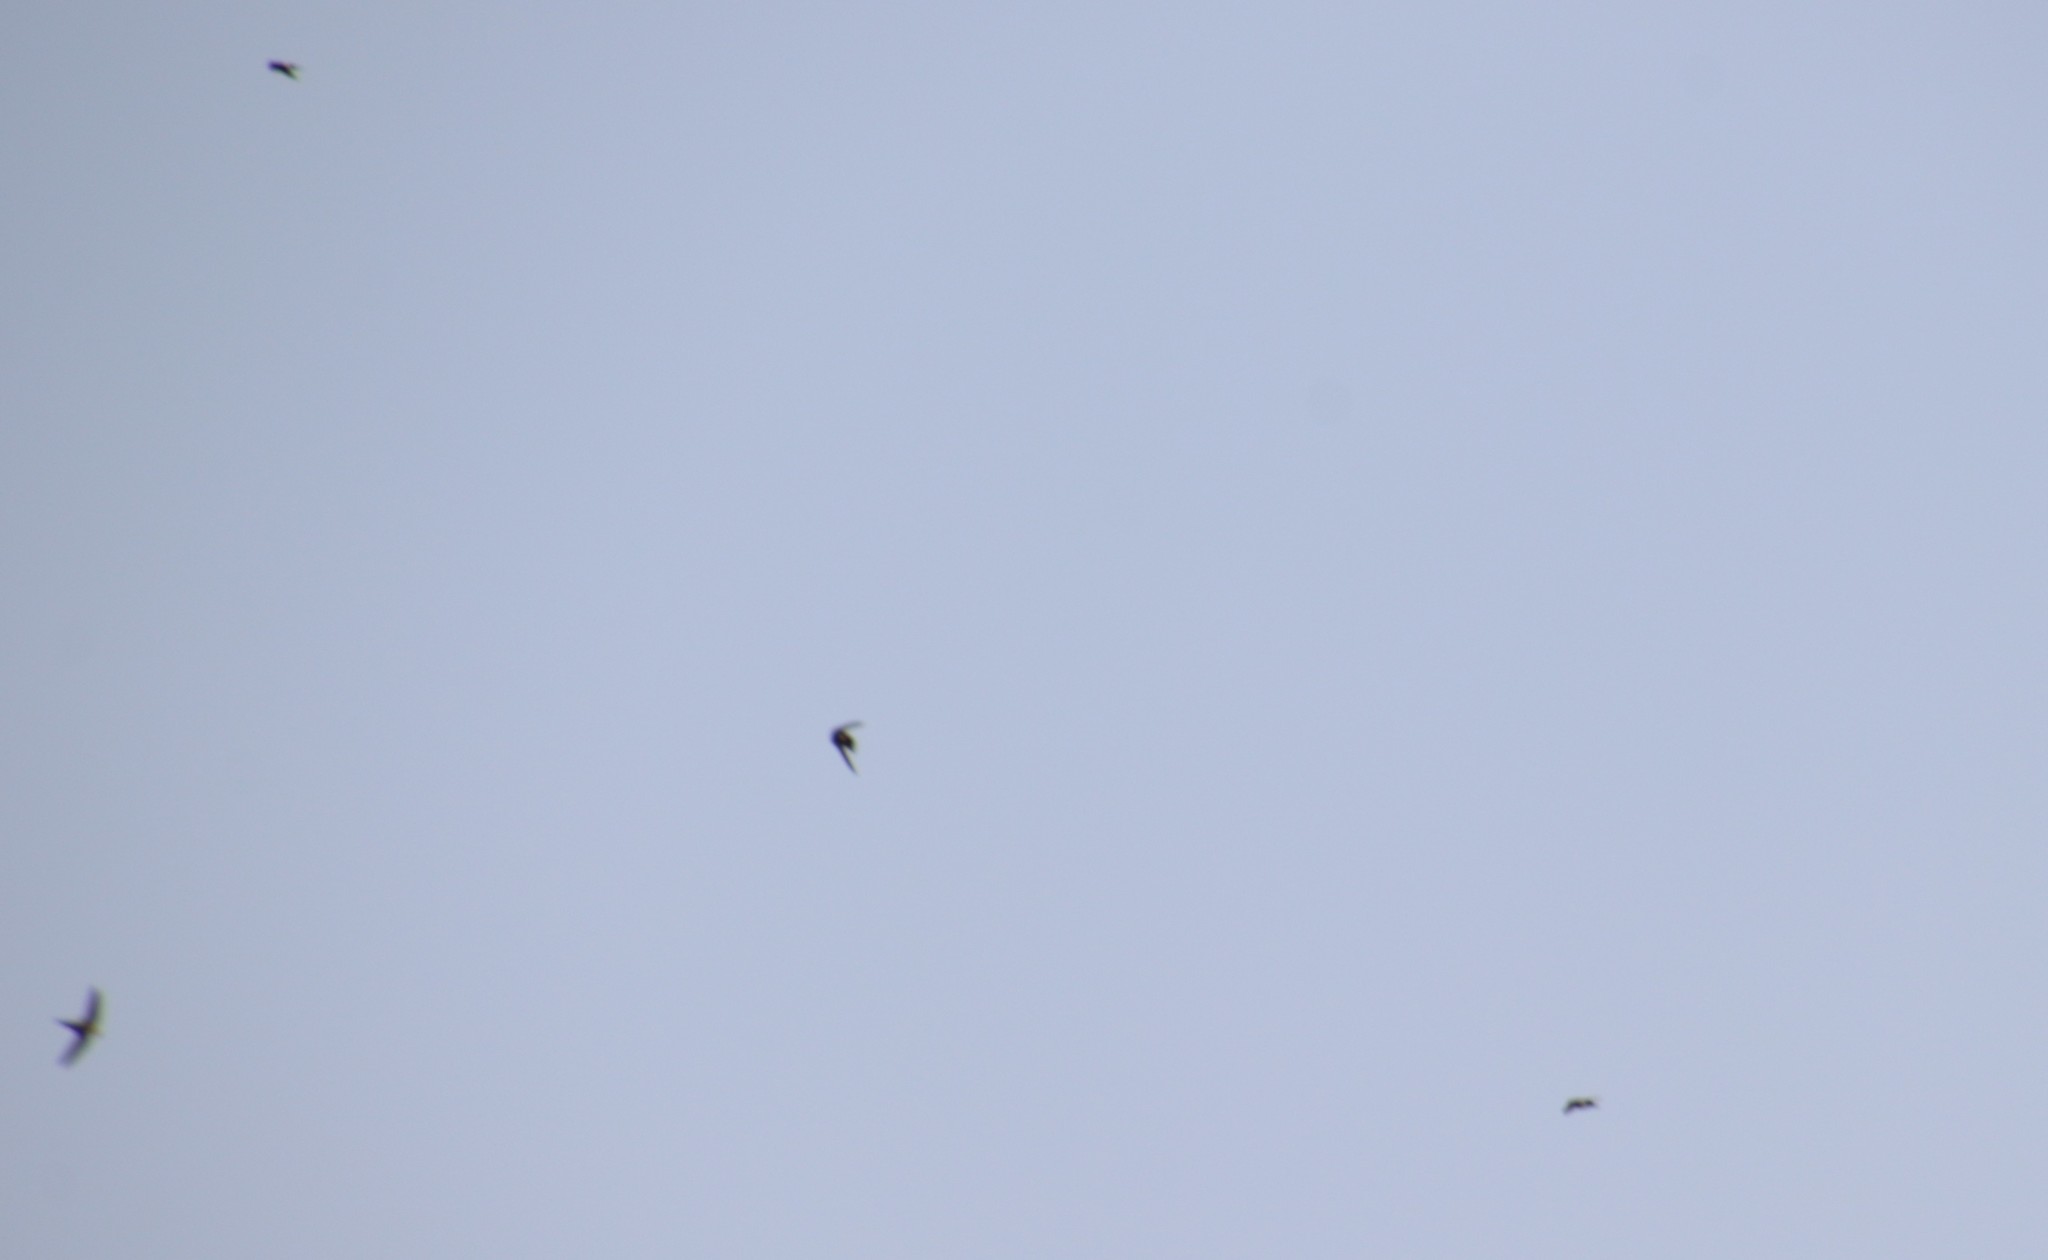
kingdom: Animalia
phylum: Chordata
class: Aves
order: Apodiformes
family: Apodidae
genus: Aeronautes
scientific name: Aeronautes saxatalis
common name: White-throated swift
